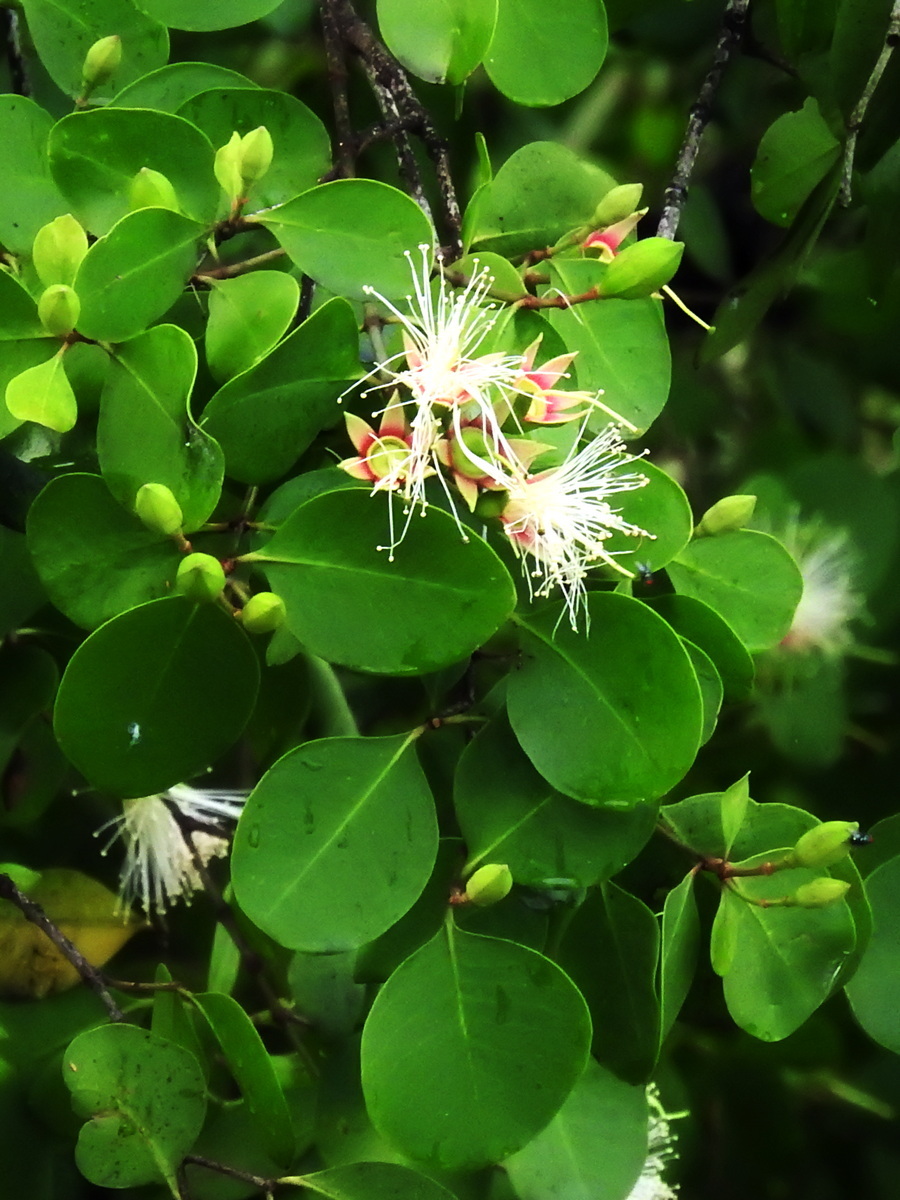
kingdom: Plantae
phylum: Tracheophyta
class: Magnoliopsida
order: Myrtales
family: Lythraceae
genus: Sonneratia
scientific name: Sonneratia alba
